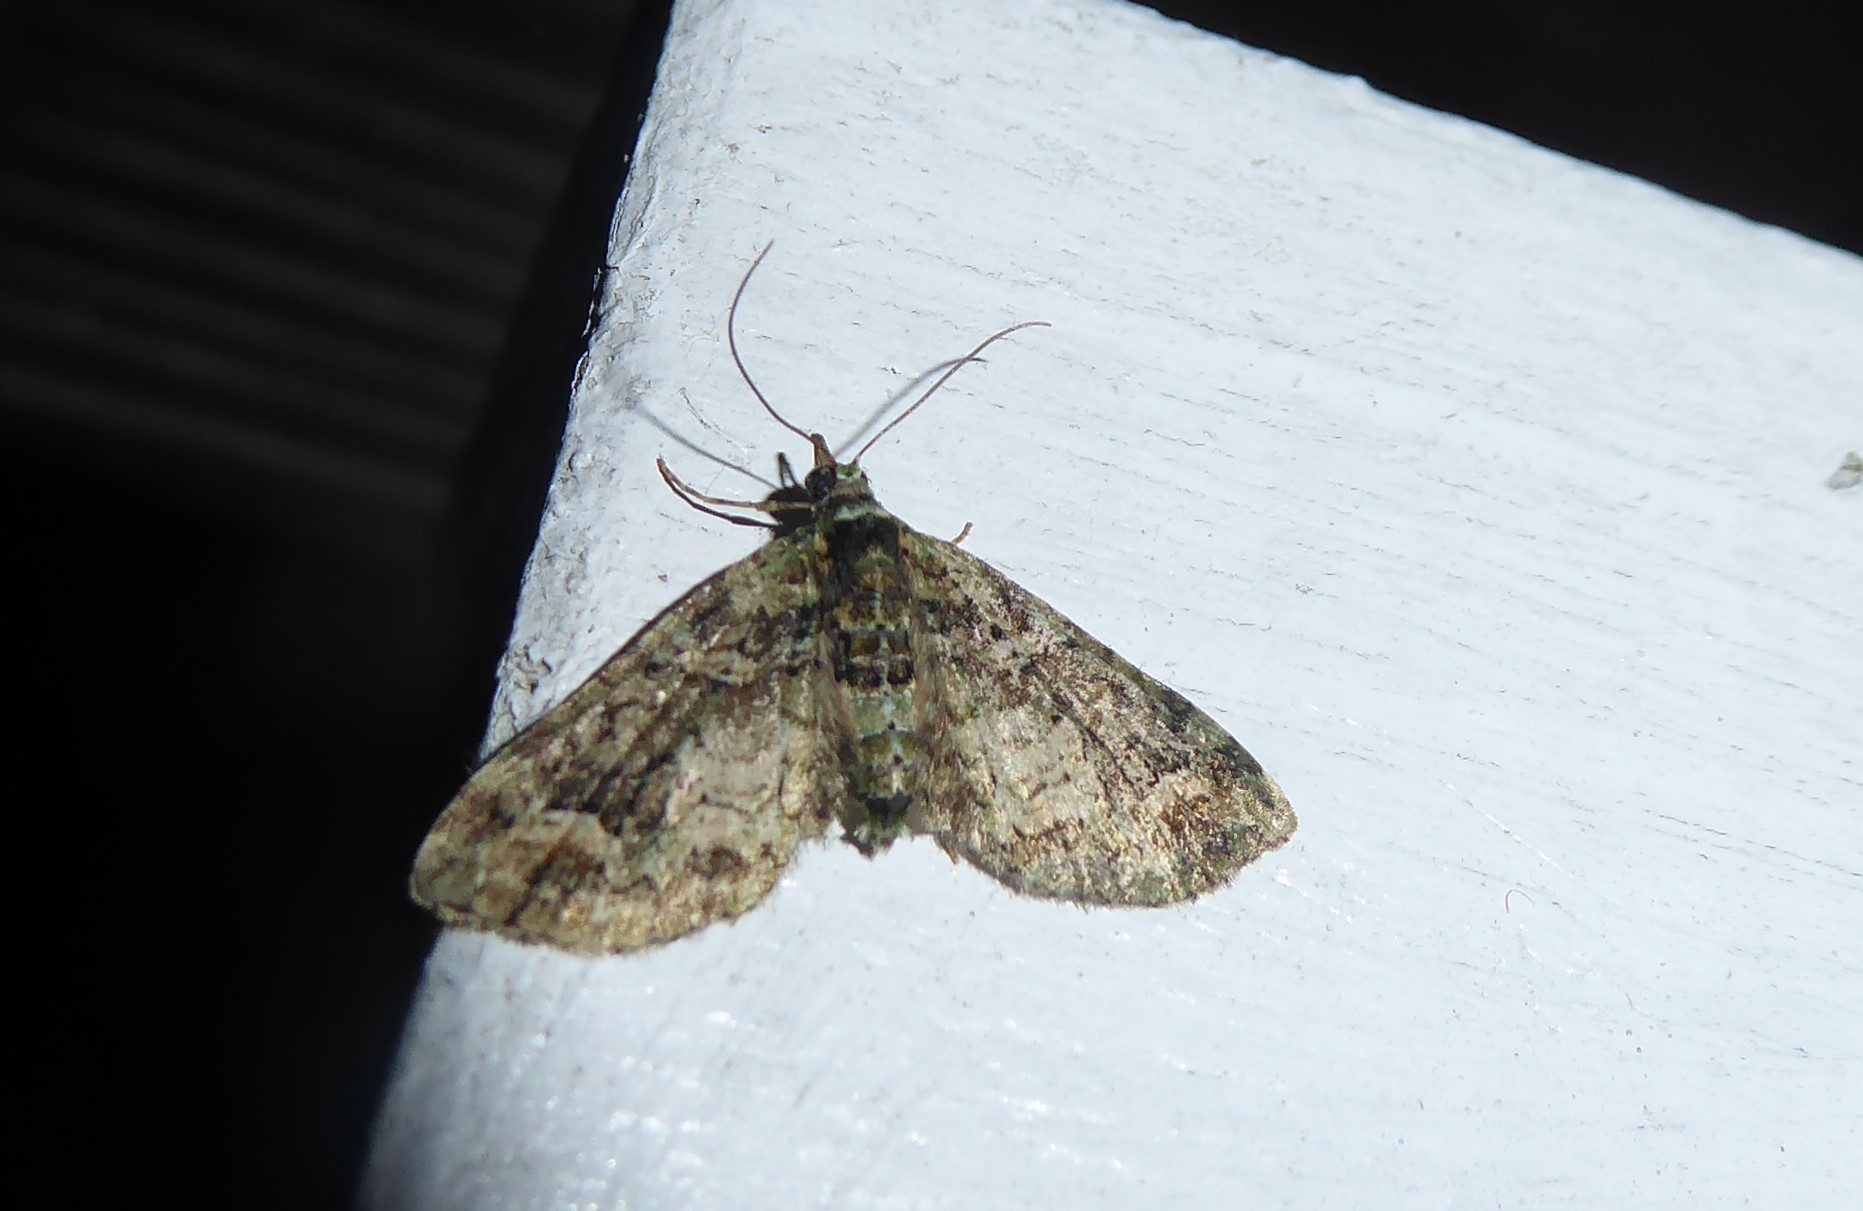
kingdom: Animalia
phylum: Arthropoda
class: Insecta
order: Lepidoptera
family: Geometridae
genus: Idaea
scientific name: Idaea mutanda
